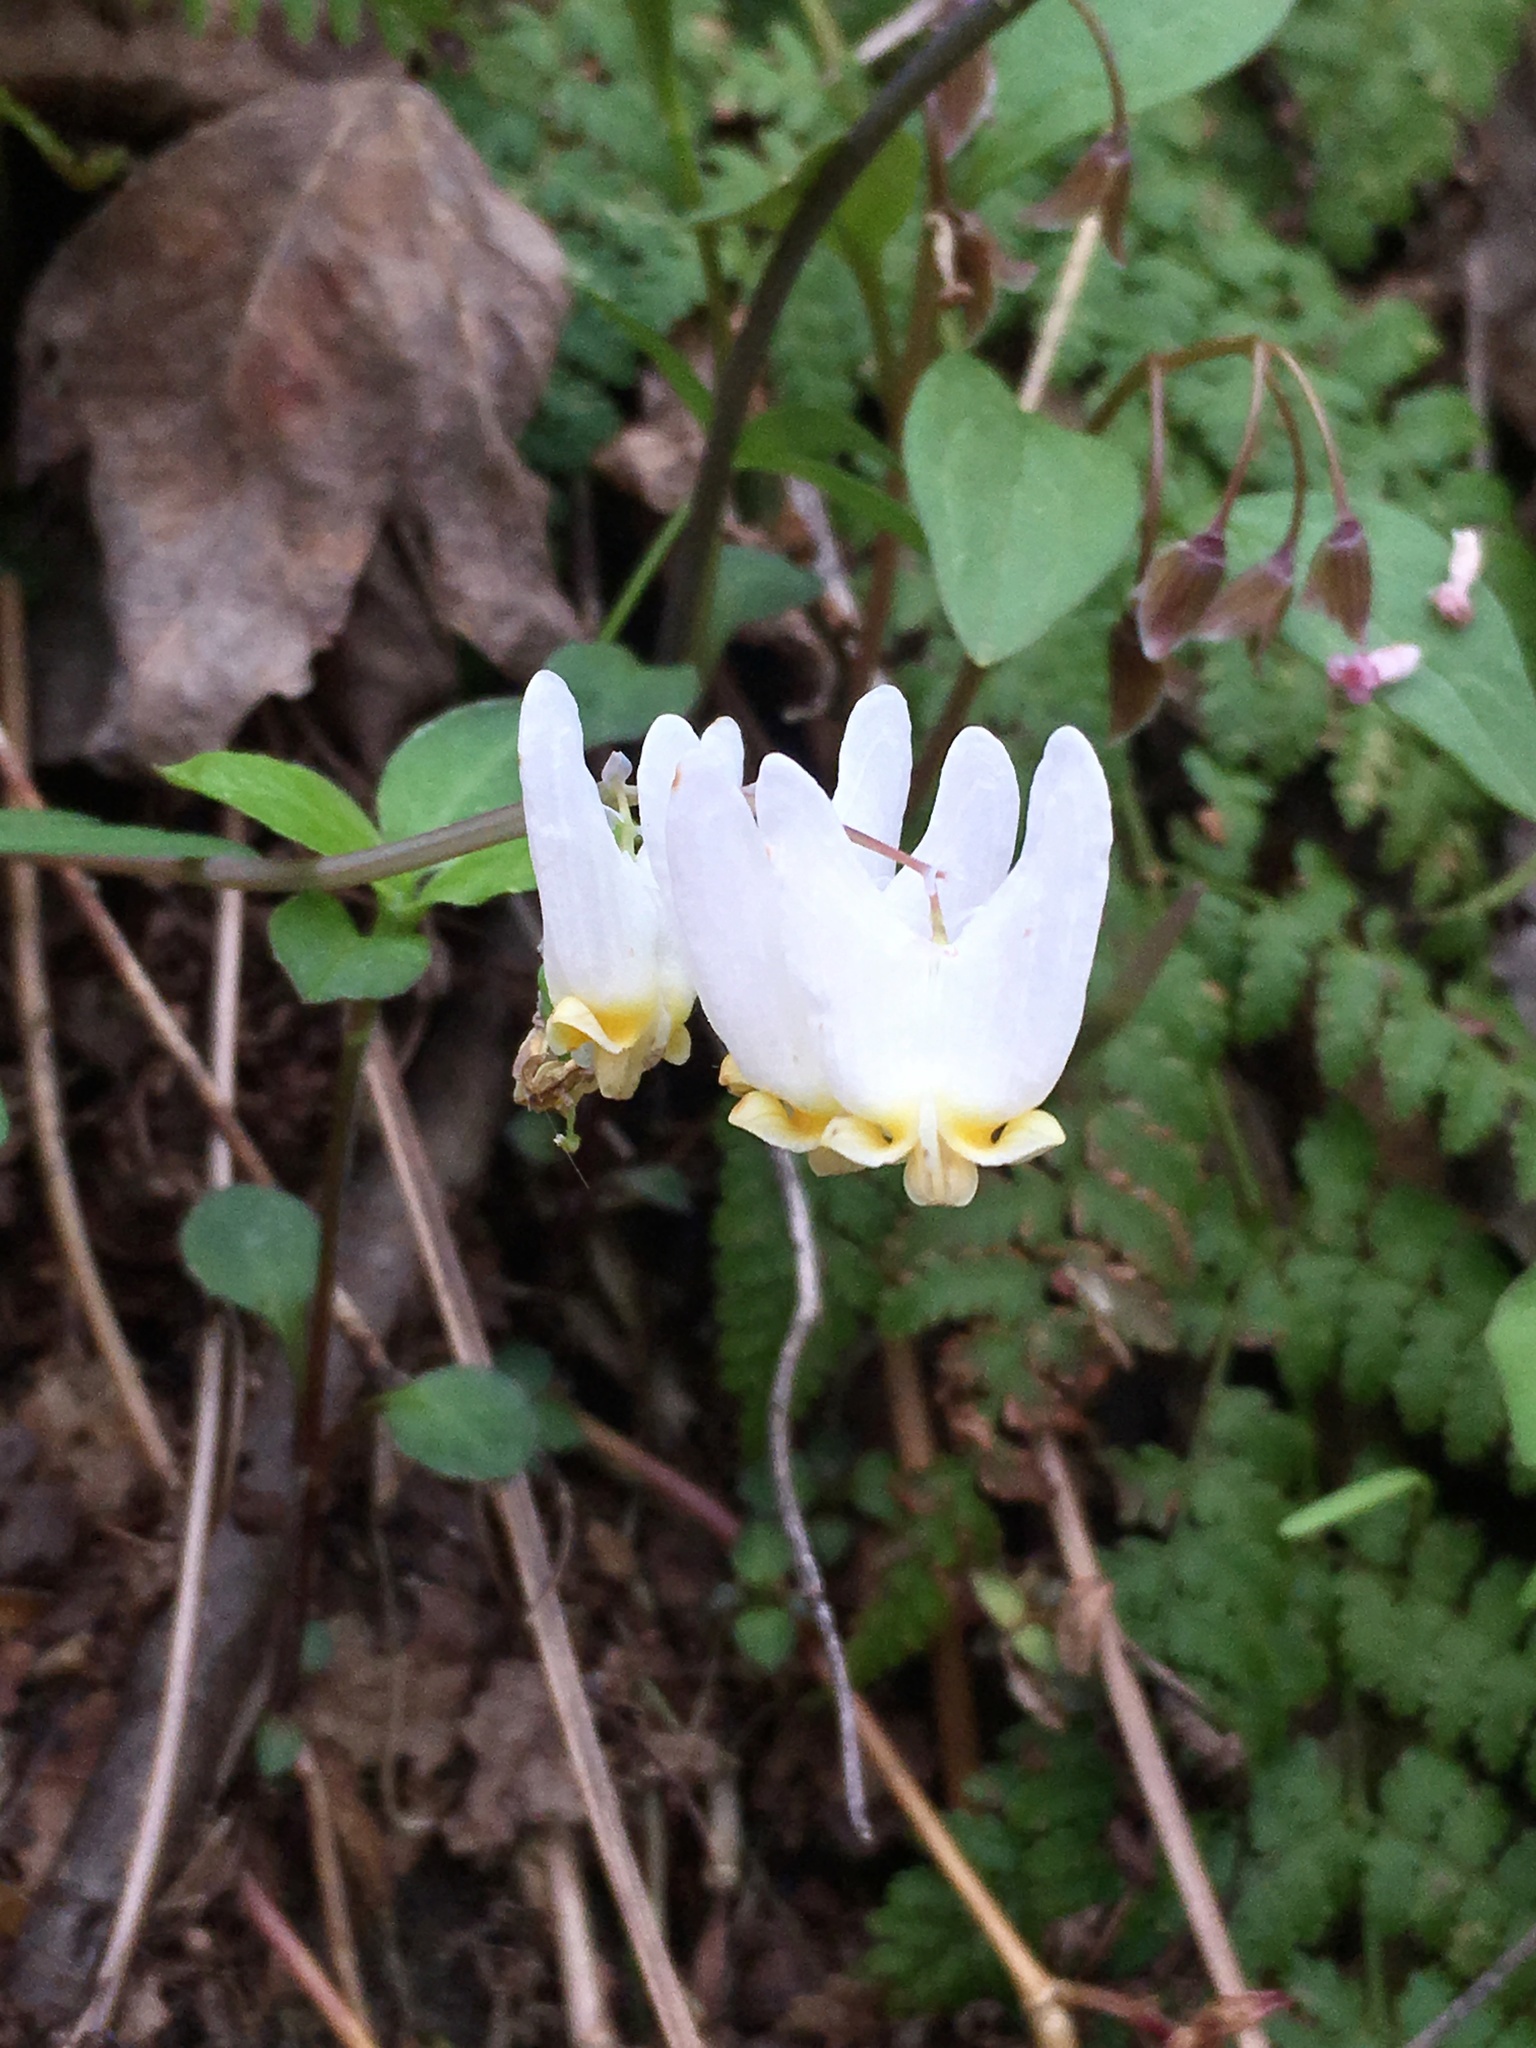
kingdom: Plantae
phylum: Tracheophyta
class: Magnoliopsida
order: Ranunculales
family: Papaveraceae
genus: Dicentra
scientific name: Dicentra cucullaria
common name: Dutchman's breeches
